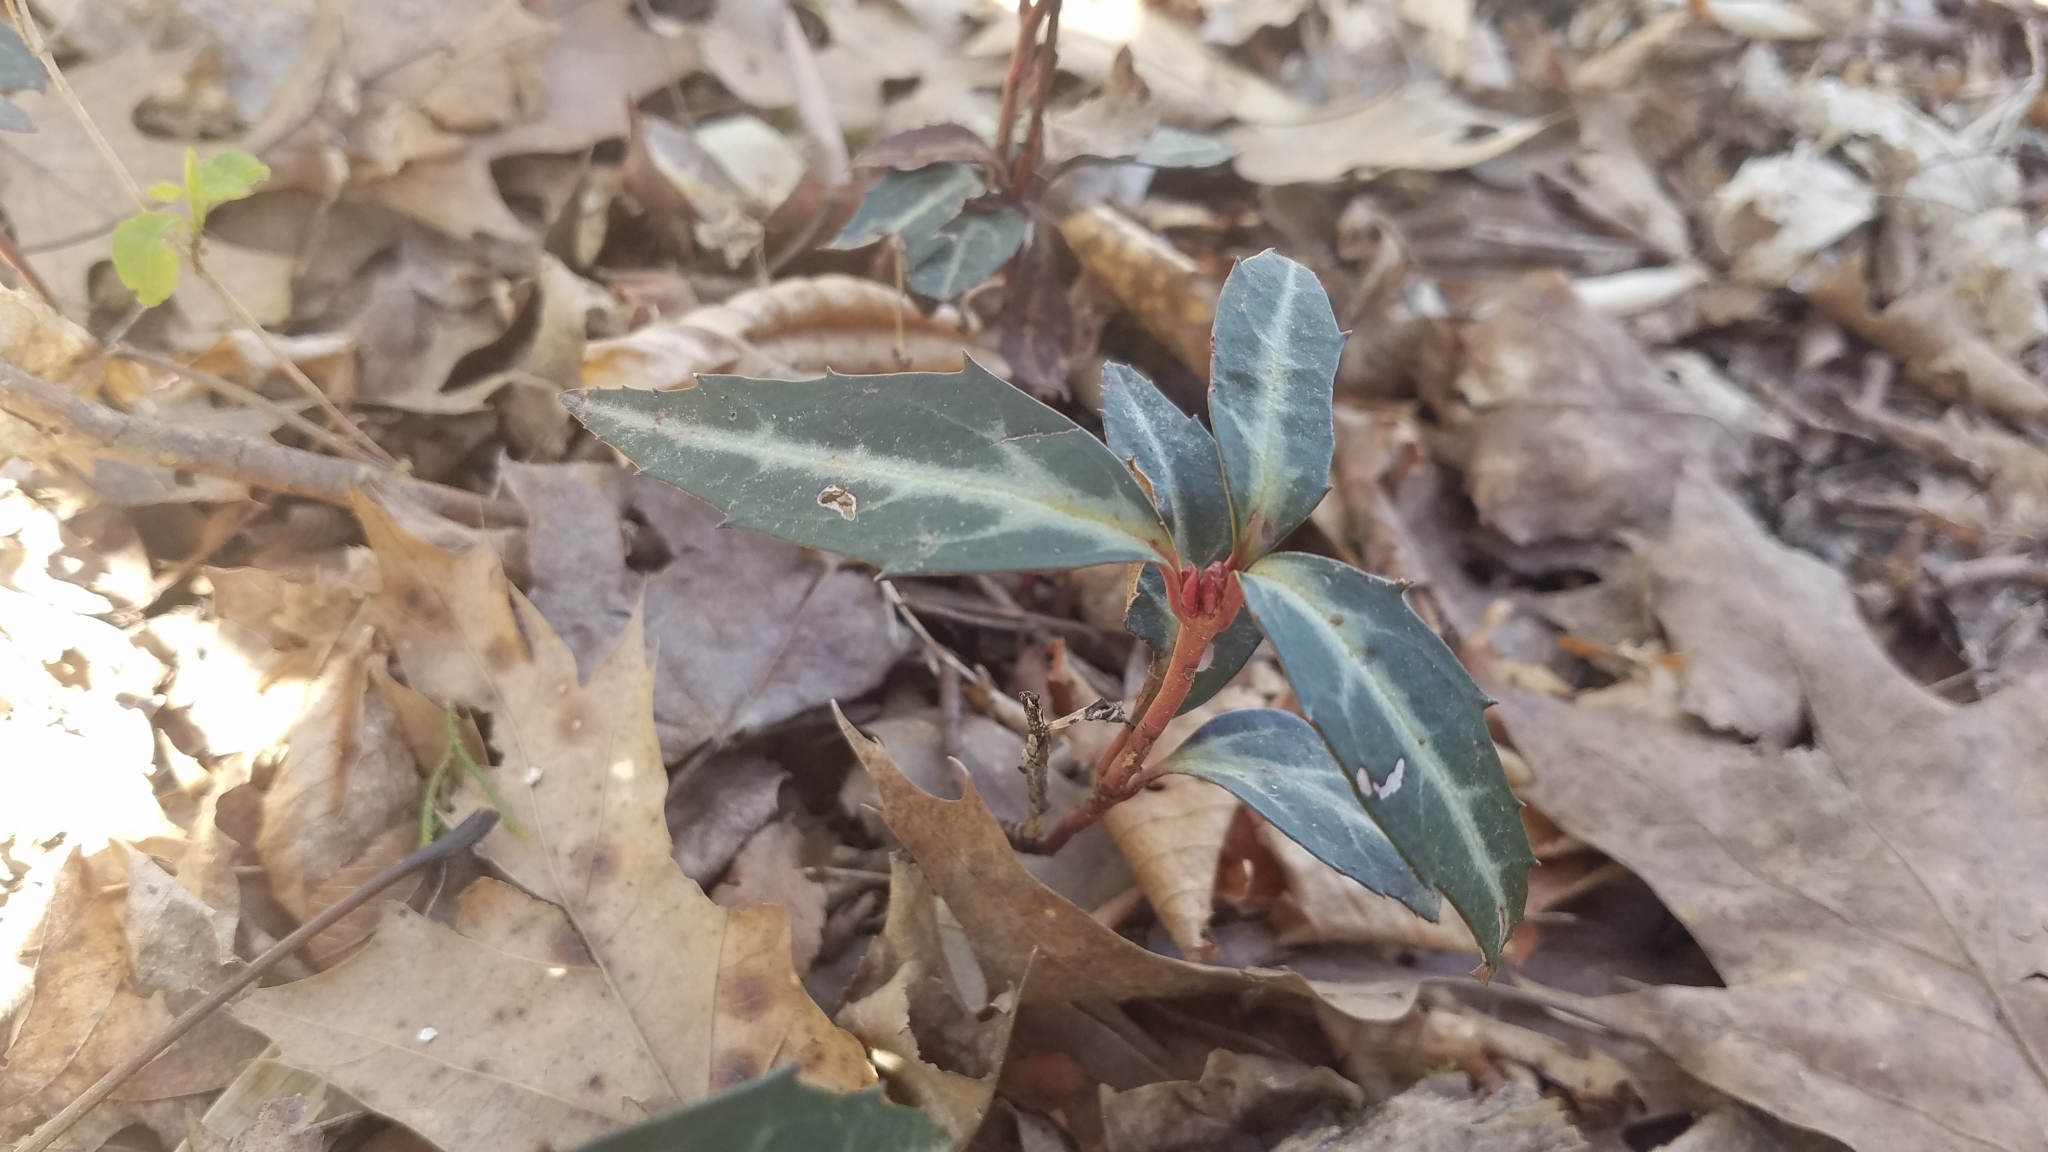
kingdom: Plantae
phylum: Tracheophyta
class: Magnoliopsida
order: Ericales
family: Ericaceae
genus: Chimaphila
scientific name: Chimaphila maculata
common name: Spotted pipsissewa
